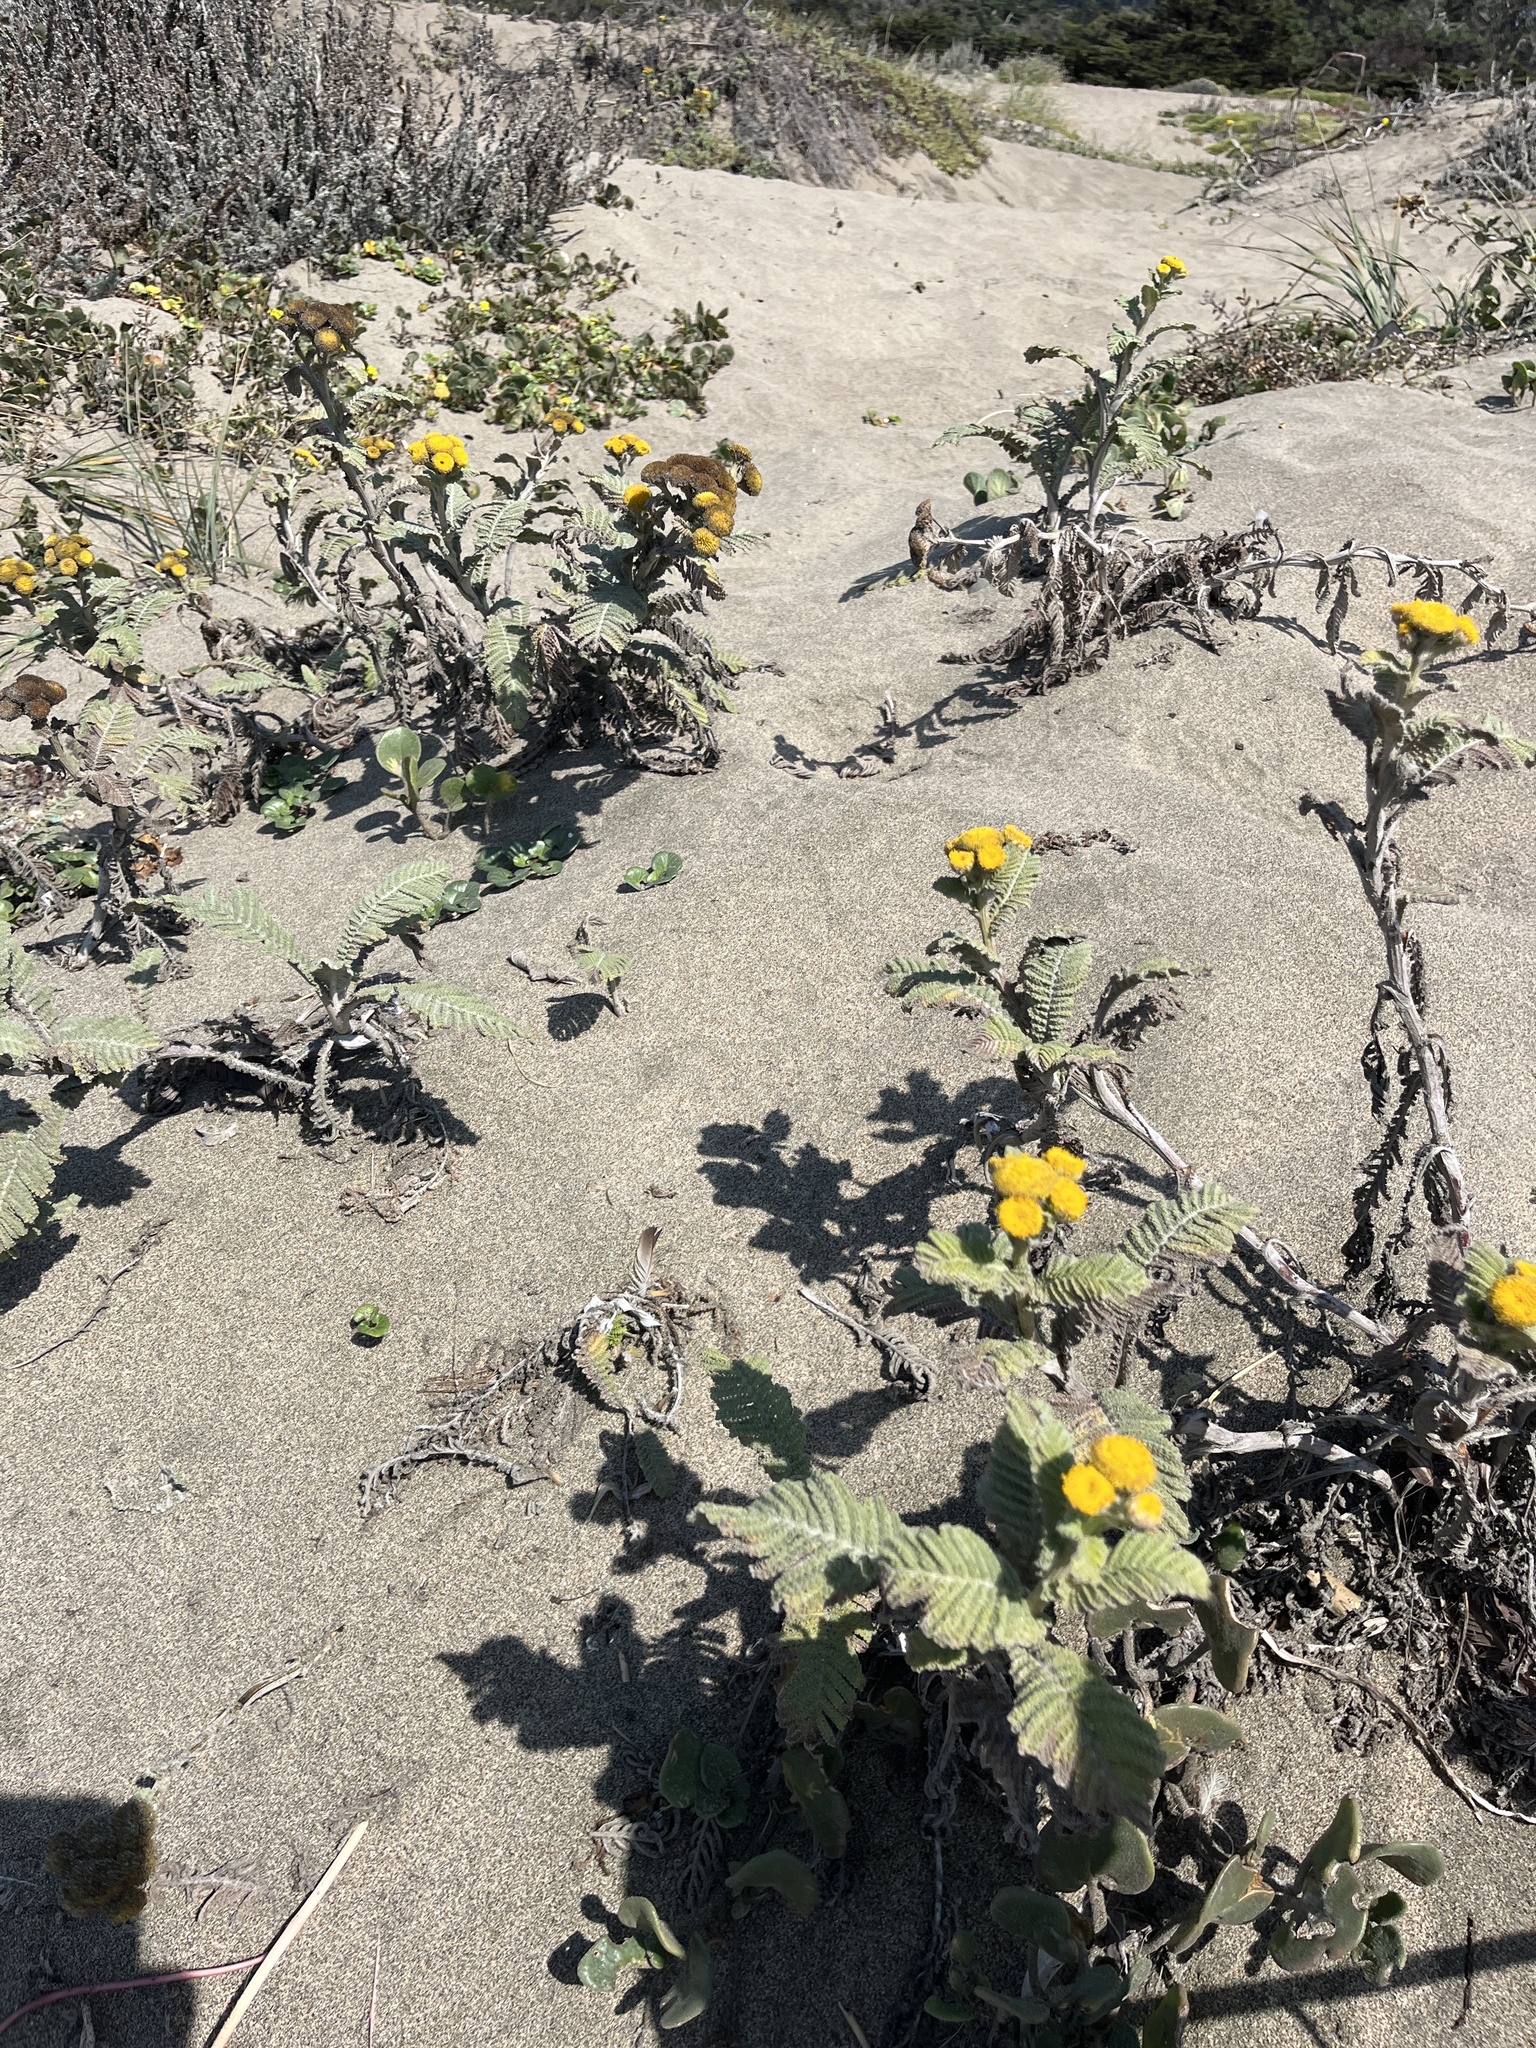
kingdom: Plantae
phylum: Tracheophyta
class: Magnoliopsida
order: Asterales
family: Asteraceae
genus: Tanacetum
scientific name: Tanacetum bipinnatum
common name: Dwarf tansy
